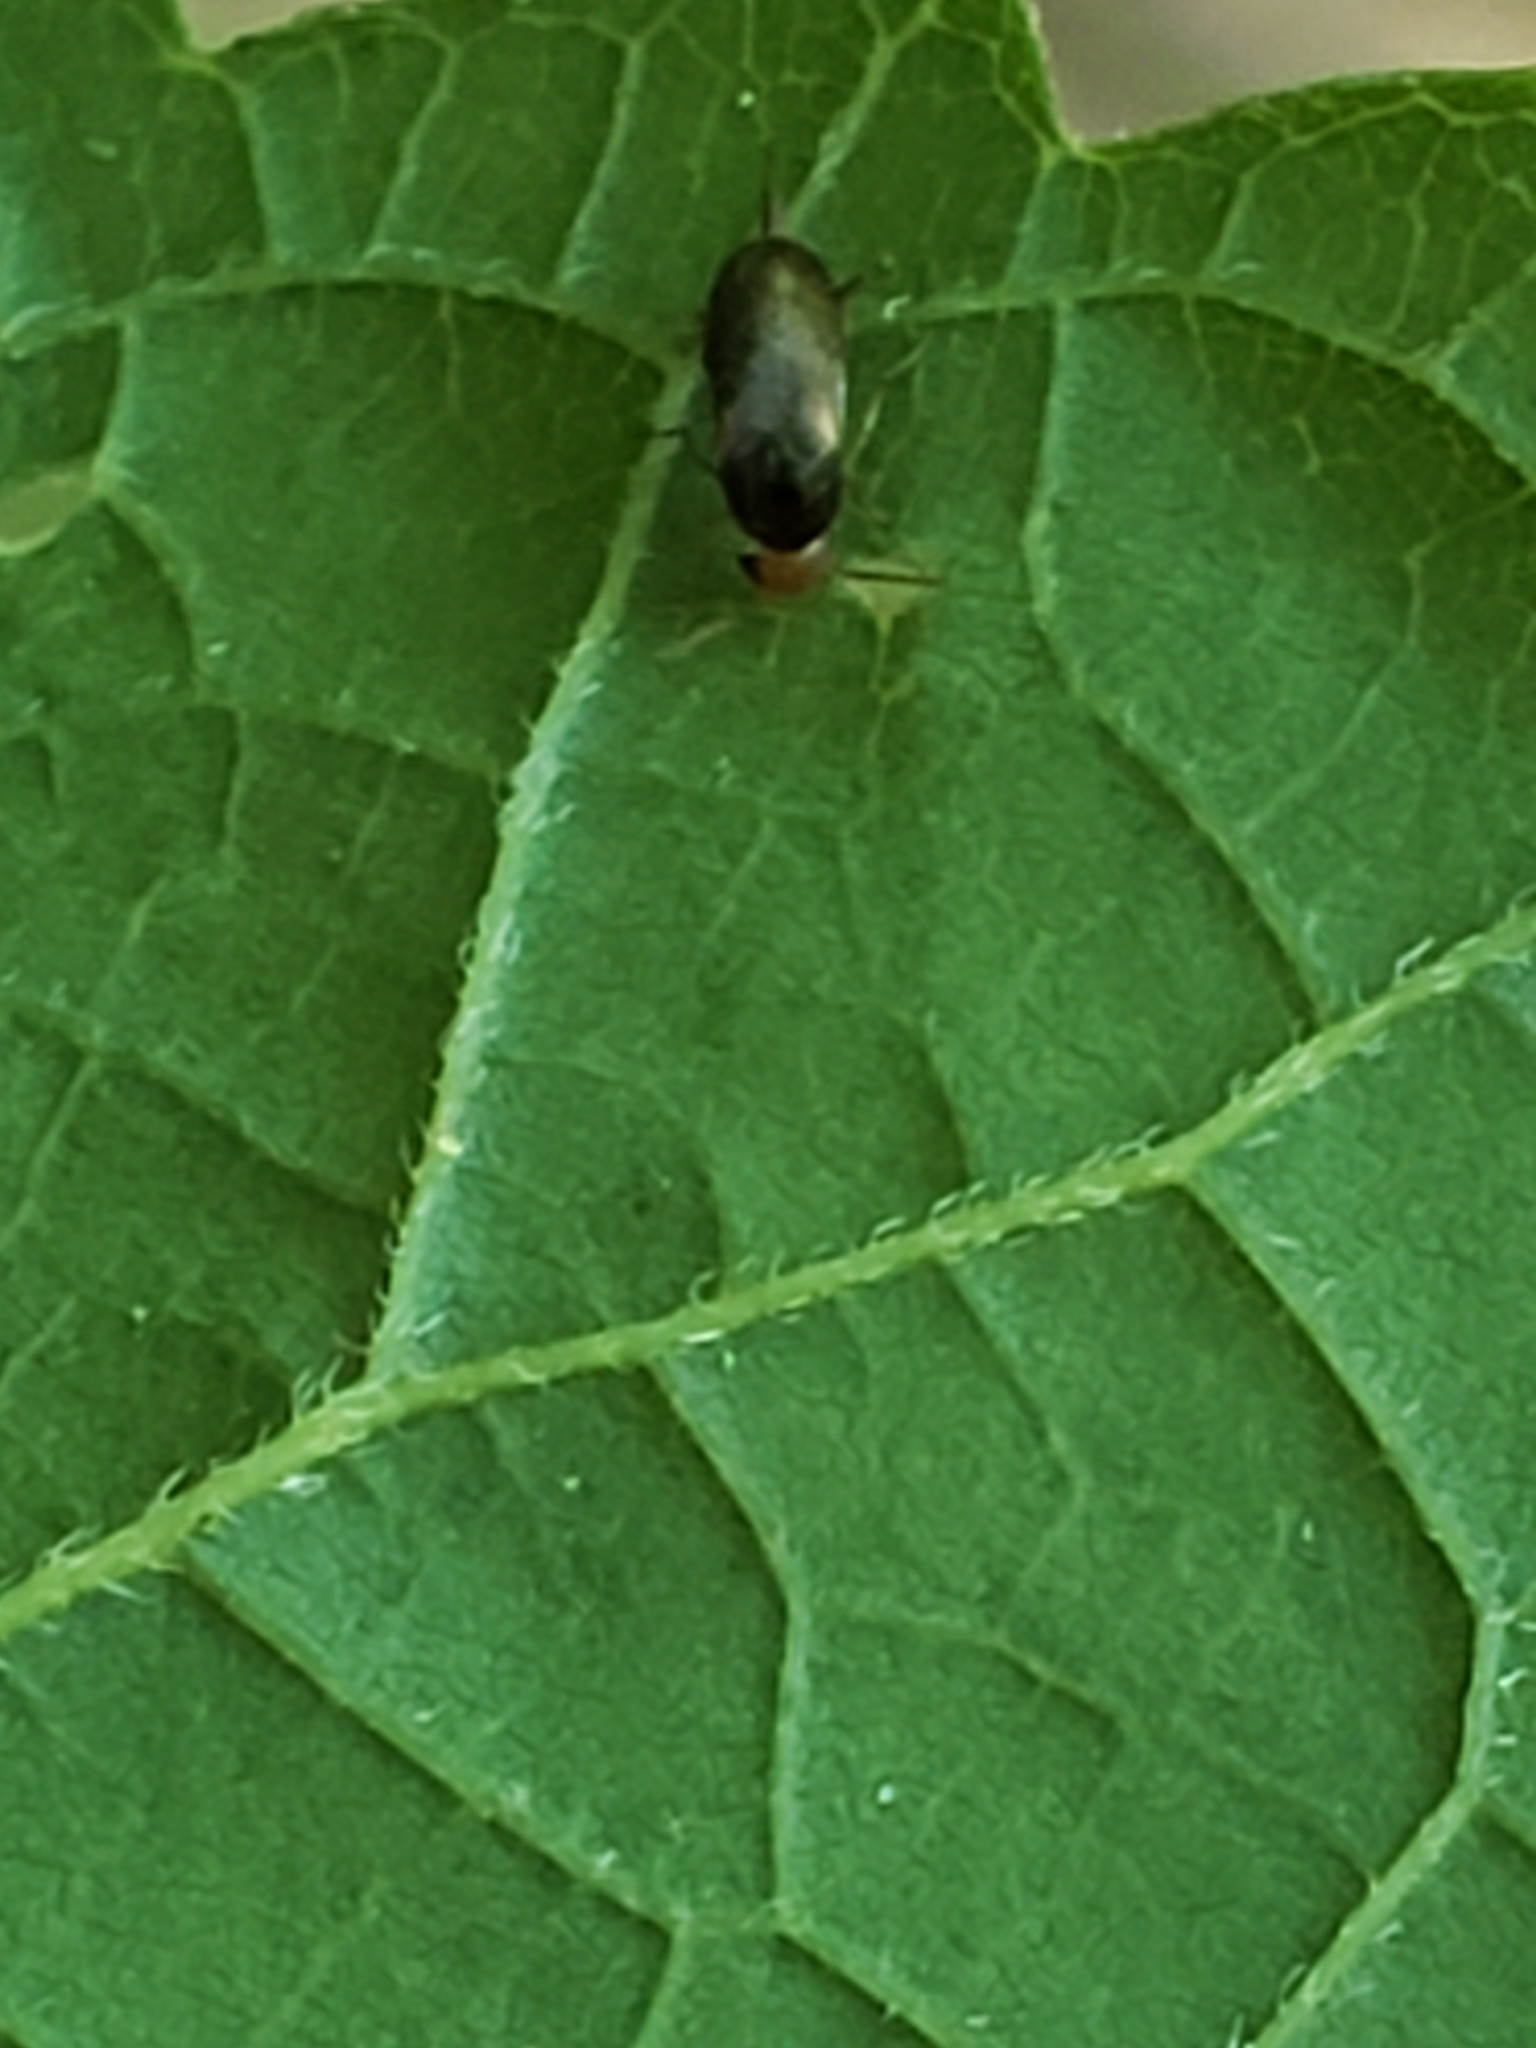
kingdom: Animalia
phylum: Arthropoda
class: Insecta
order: Coleoptera
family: Mordellidae
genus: Mordellina
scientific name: Mordellina lecontei
